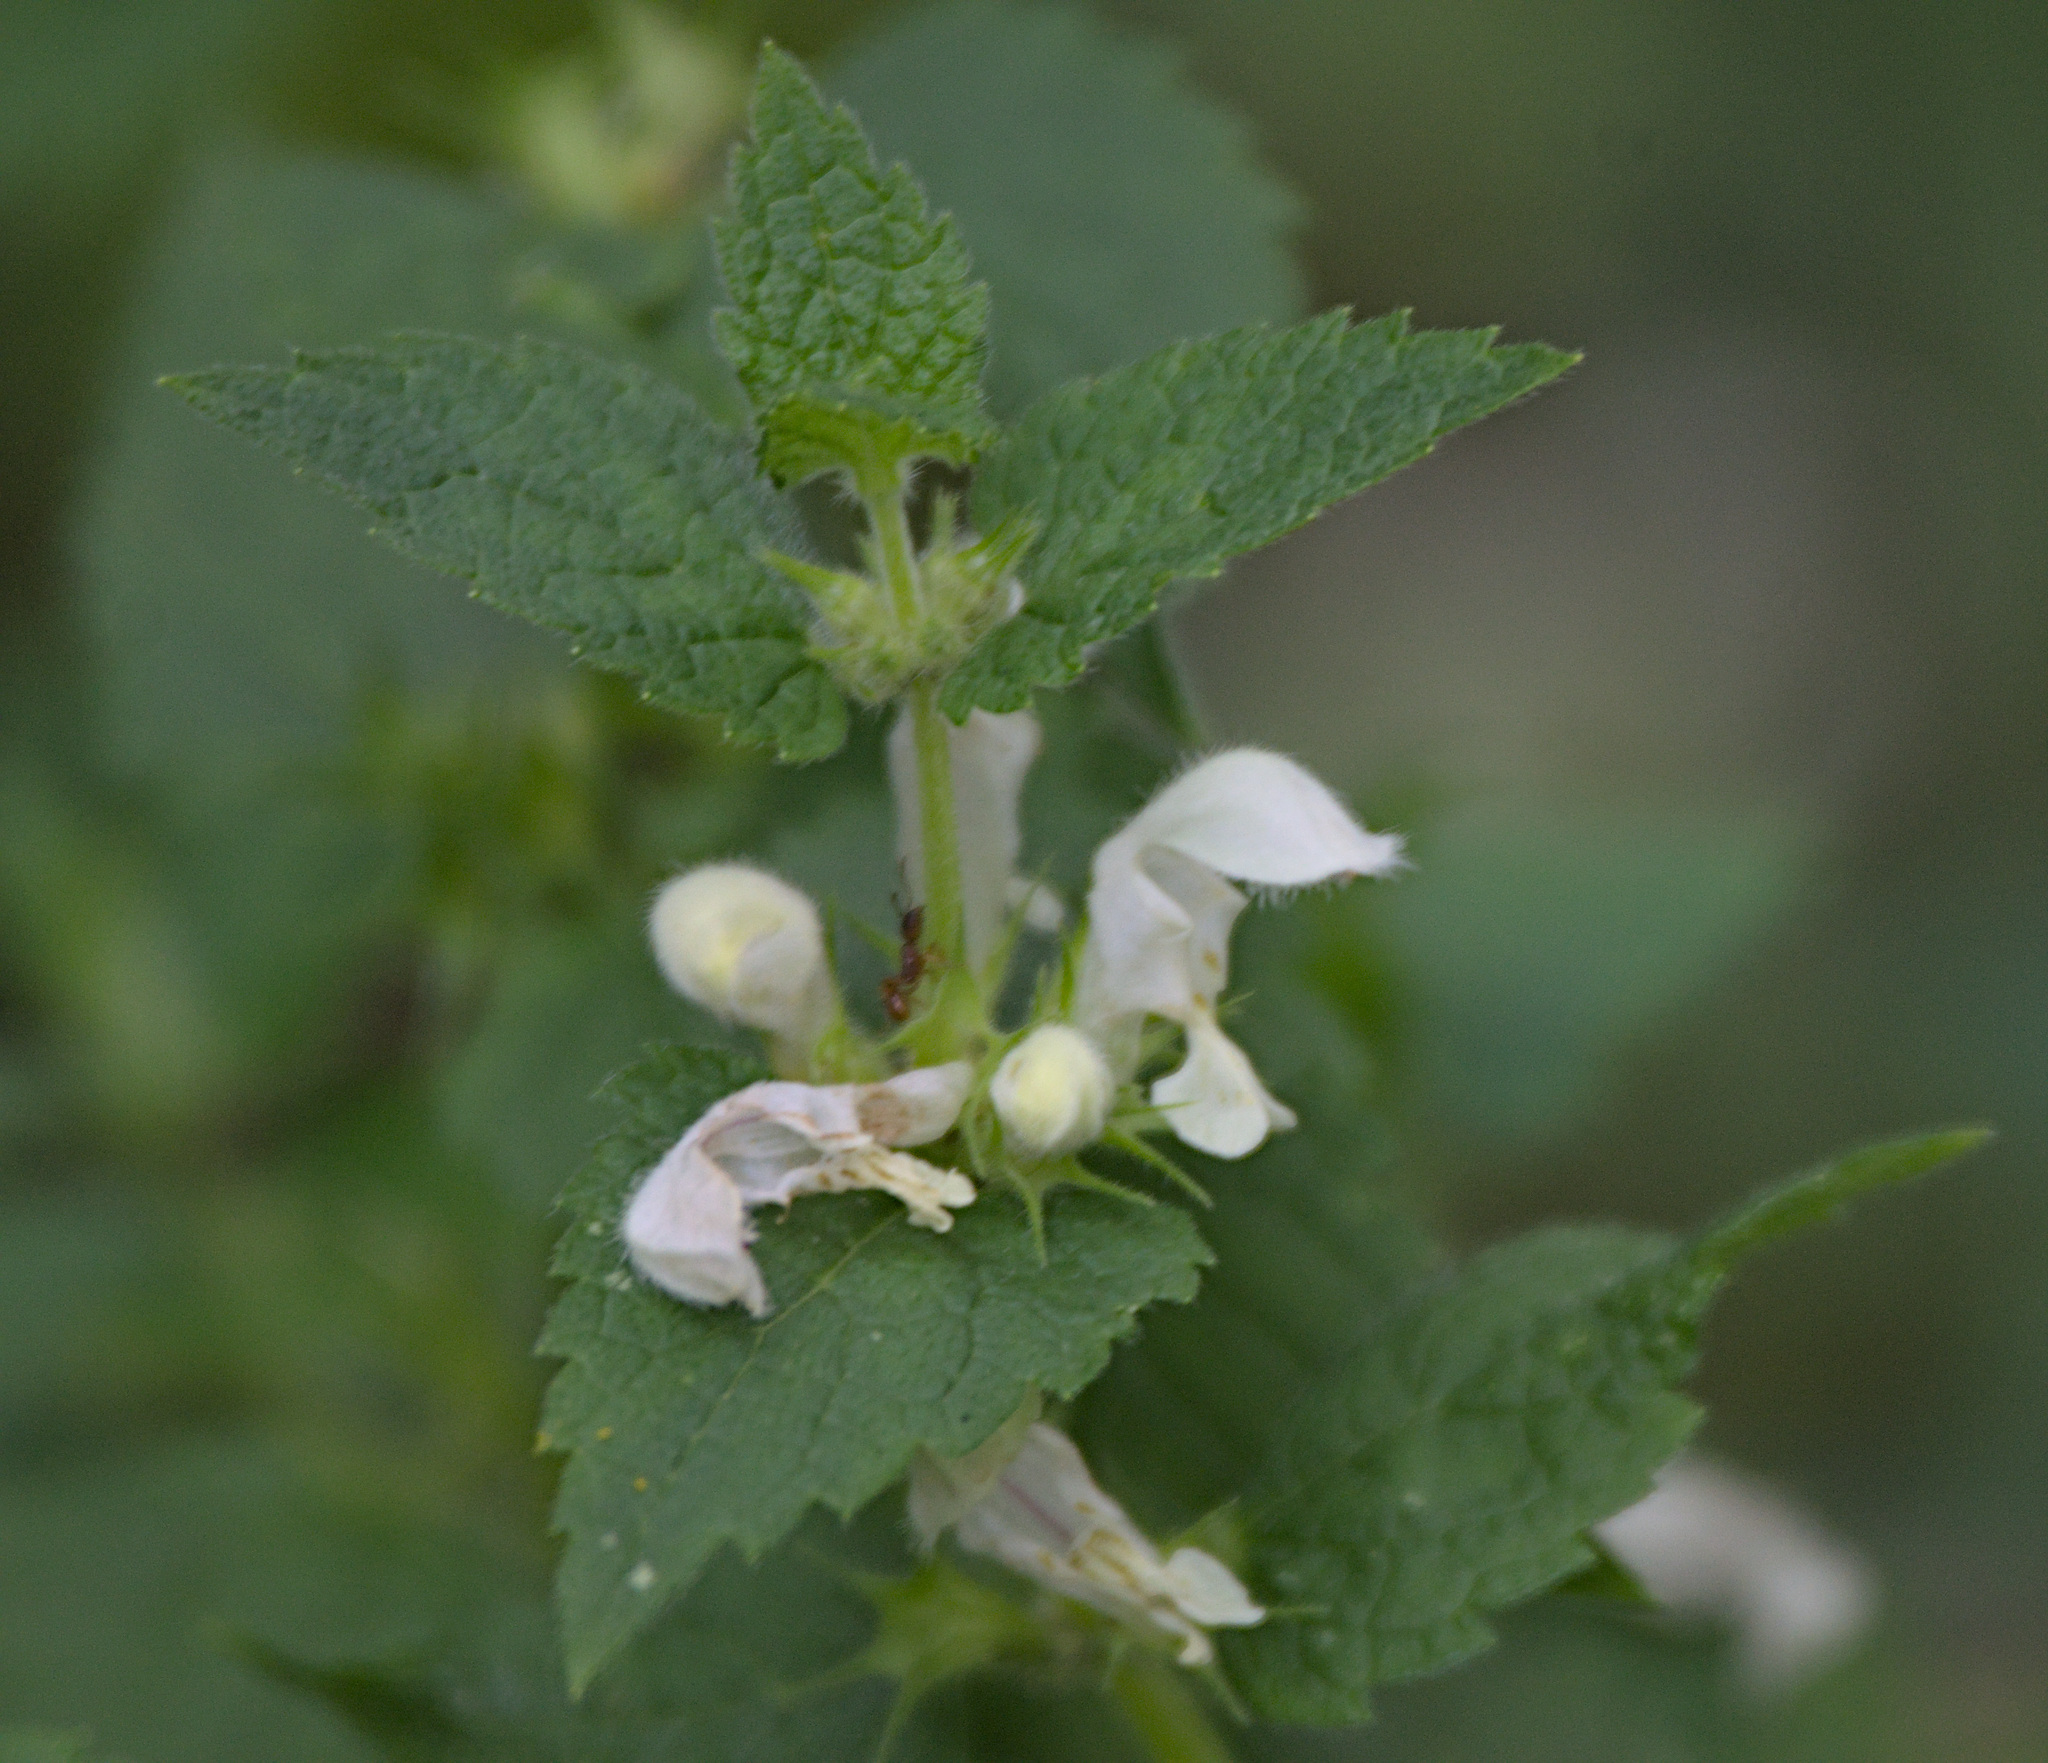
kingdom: Plantae
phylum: Tracheophyta
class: Magnoliopsida
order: Lamiales
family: Lamiaceae
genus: Lamium
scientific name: Lamium album
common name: White dead-nettle
